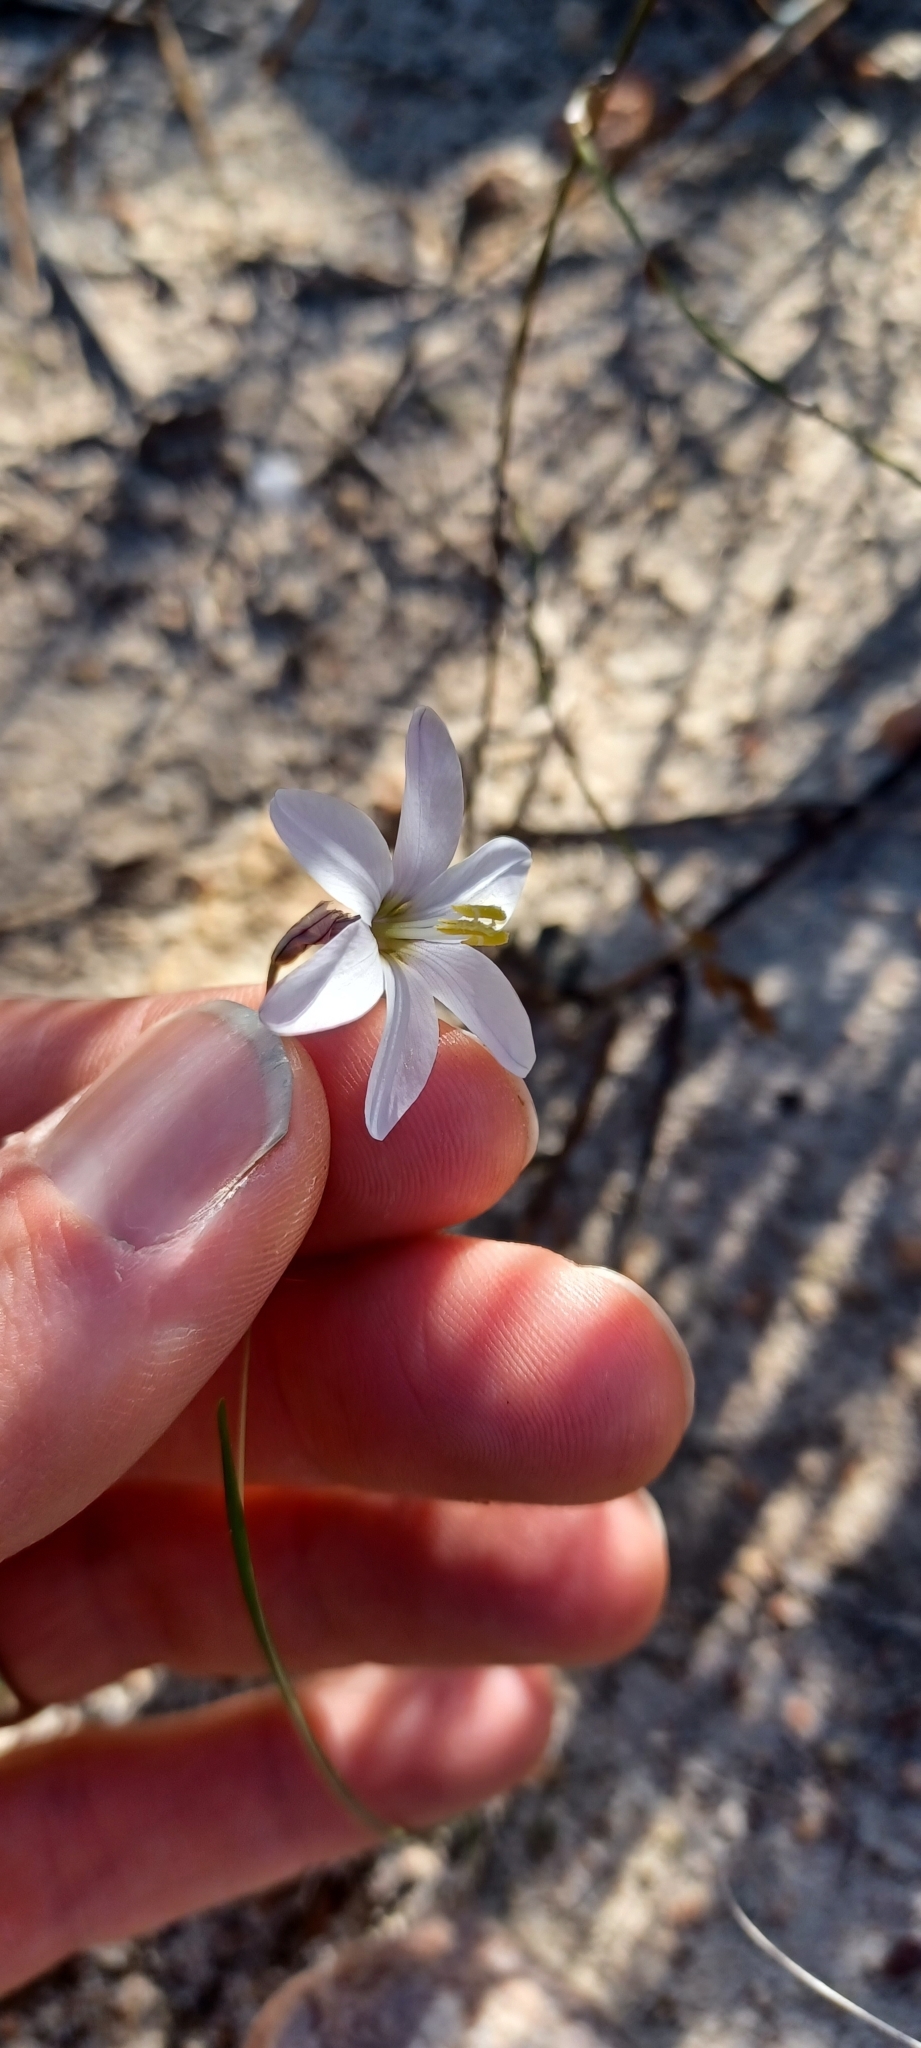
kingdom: Plantae
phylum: Tracheophyta
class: Liliopsida
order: Asparagales
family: Iridaceae
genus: Ixia
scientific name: Ixia capillaris
